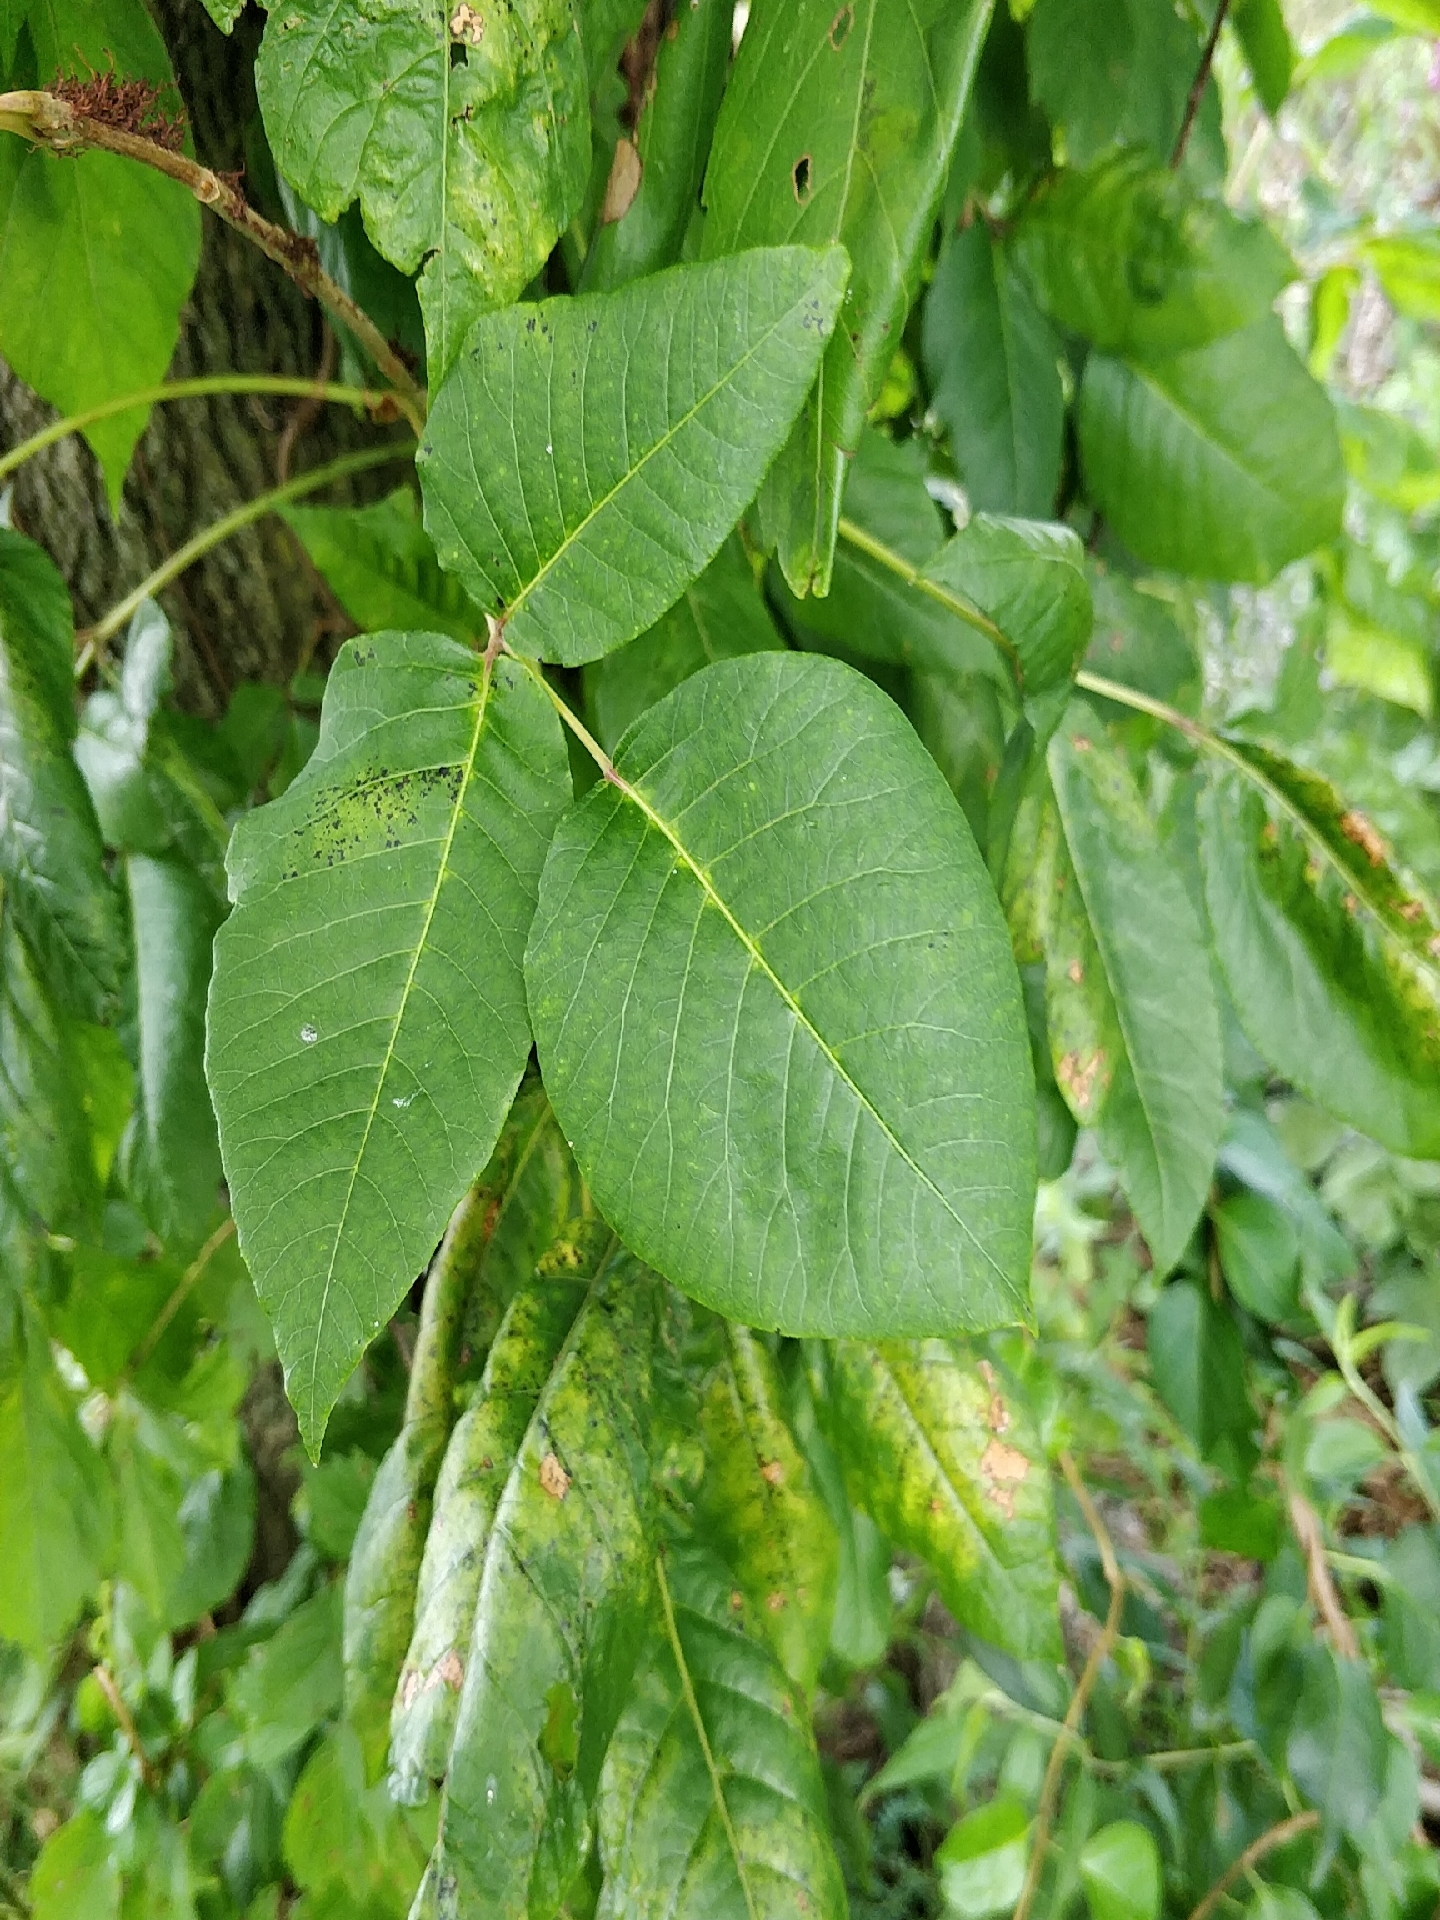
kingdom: Plantae
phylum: Tracheophyta
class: Magnoliopsida
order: Sapindales
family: Anacardiaceae
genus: Toxicodendron
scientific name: Toxicodendron radicans
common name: Poison ivy
